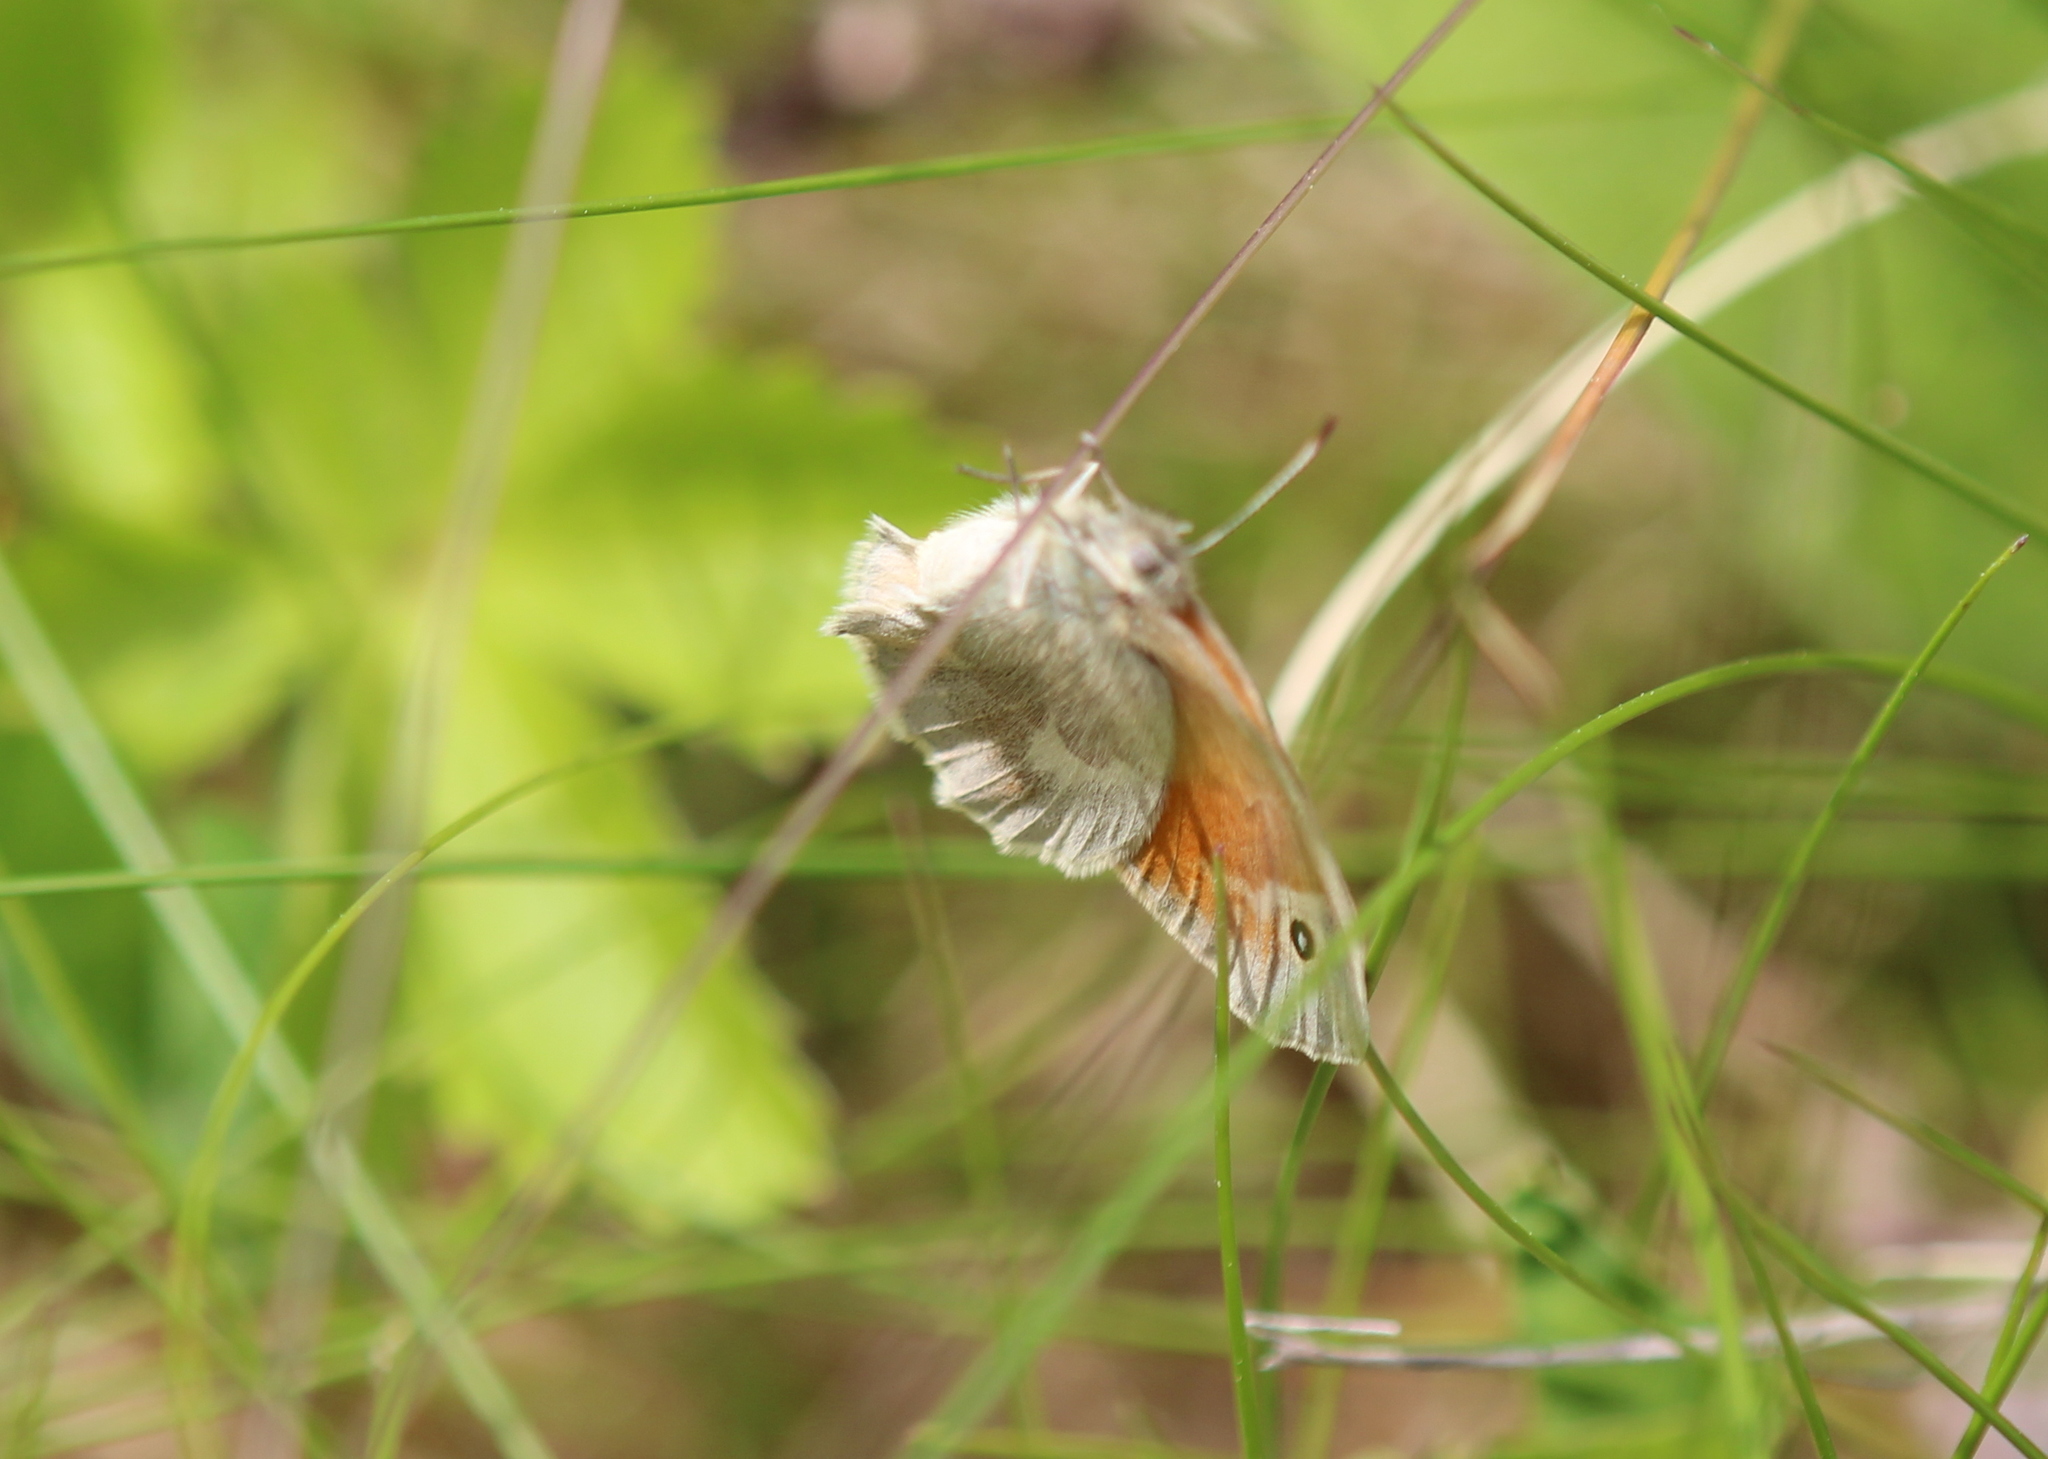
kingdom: Animalia
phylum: Arthropoda
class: Insecta
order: Lepidoptera
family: Nymphalidae
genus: Coenonympha
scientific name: Coenonympha california
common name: Common ringlet
